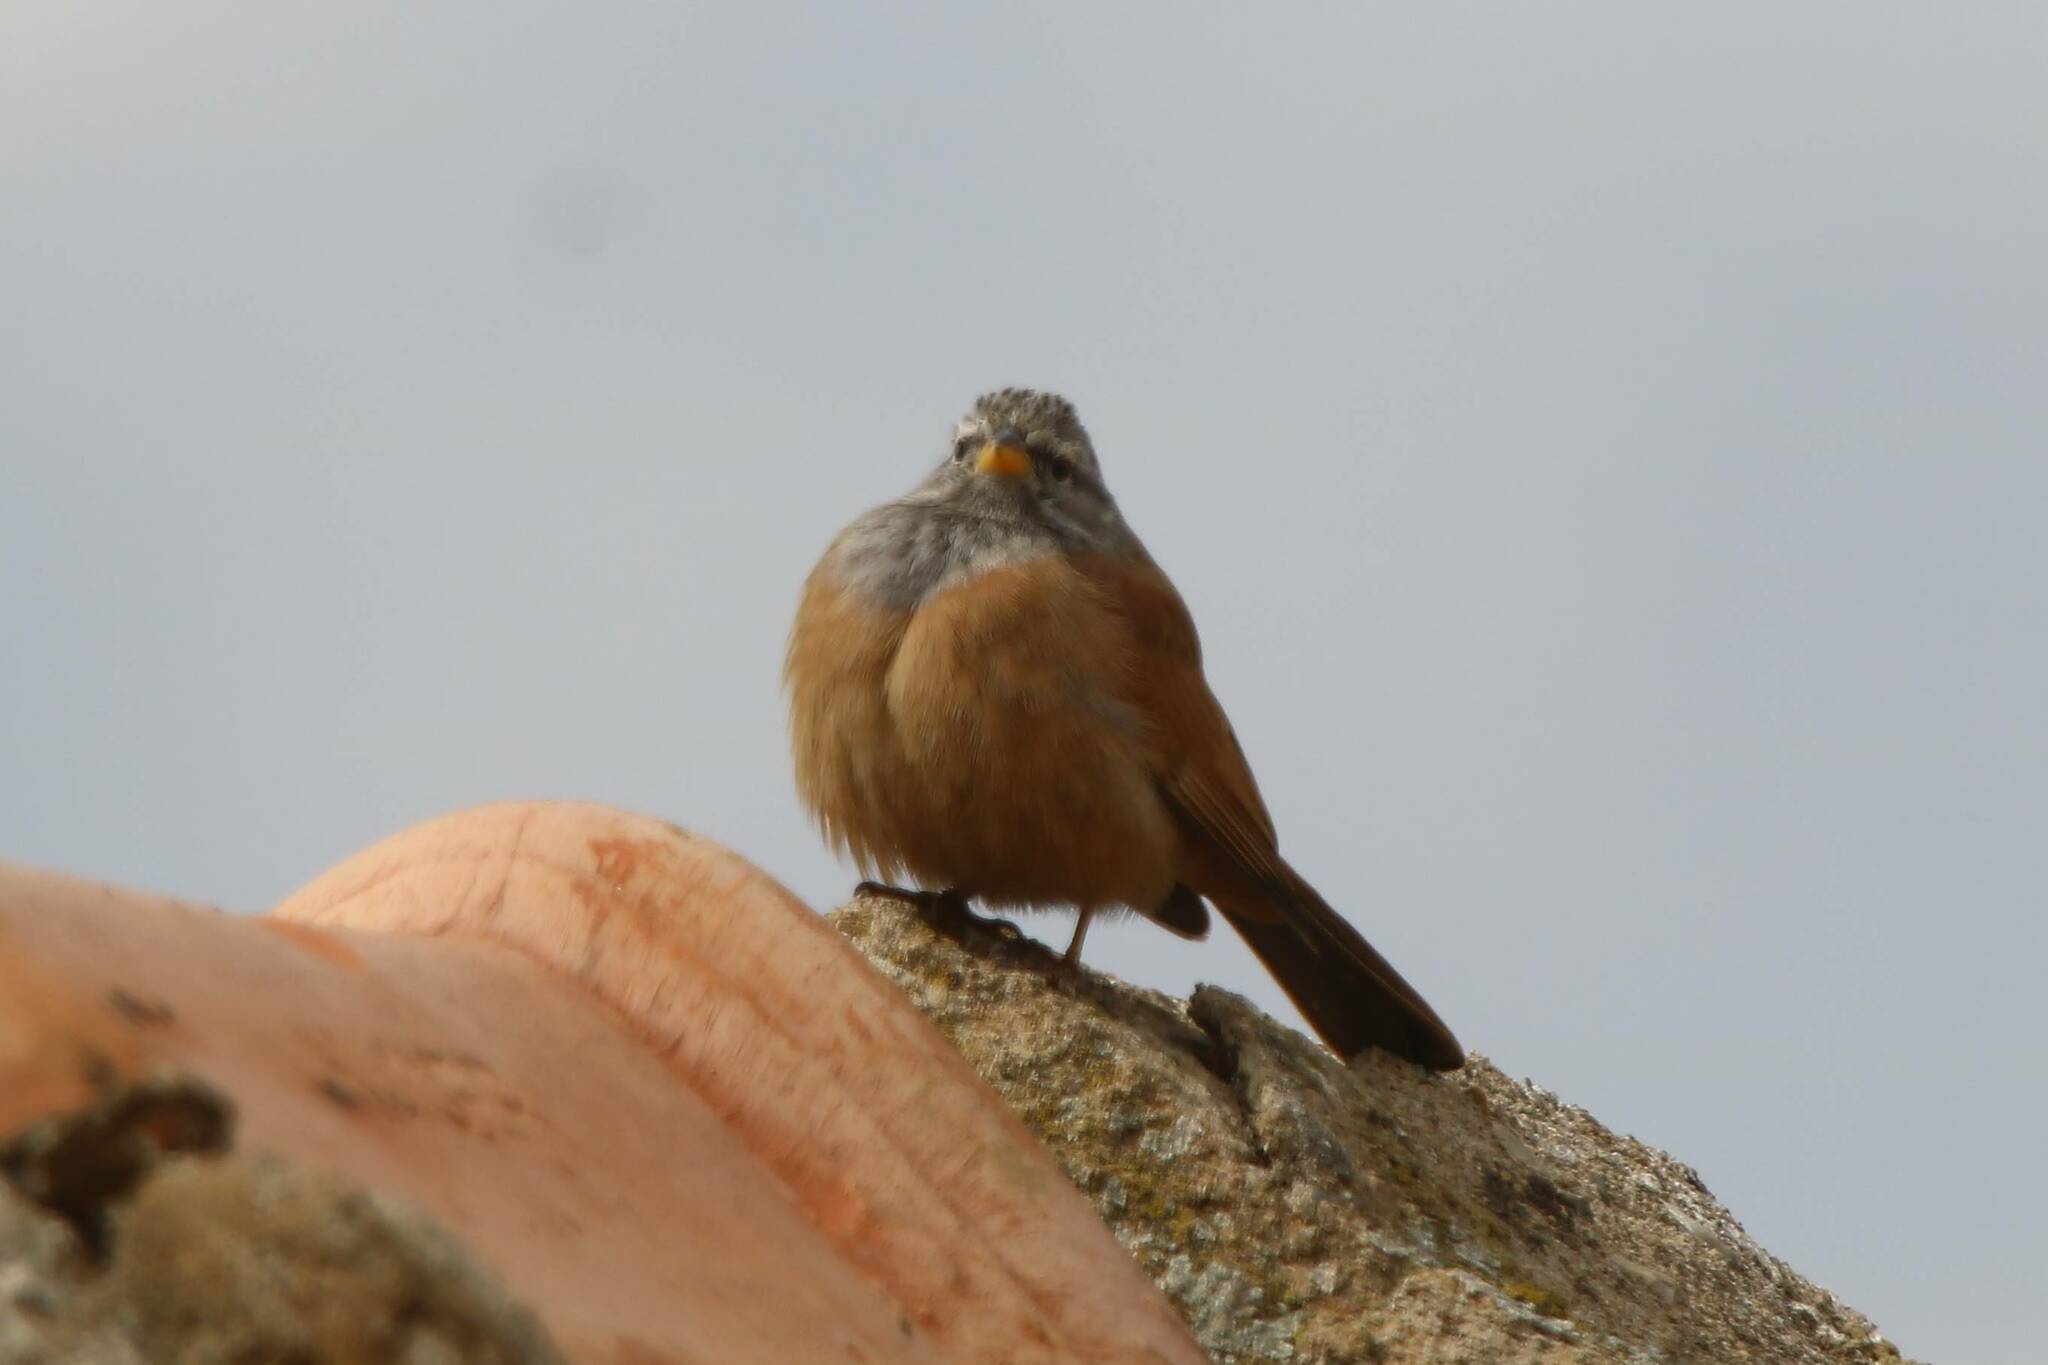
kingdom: Animalia
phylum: Chordata
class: Aves
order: Passeriformes
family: Emberizidae
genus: Emberiza
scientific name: Emberiza sahari
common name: House bunting
